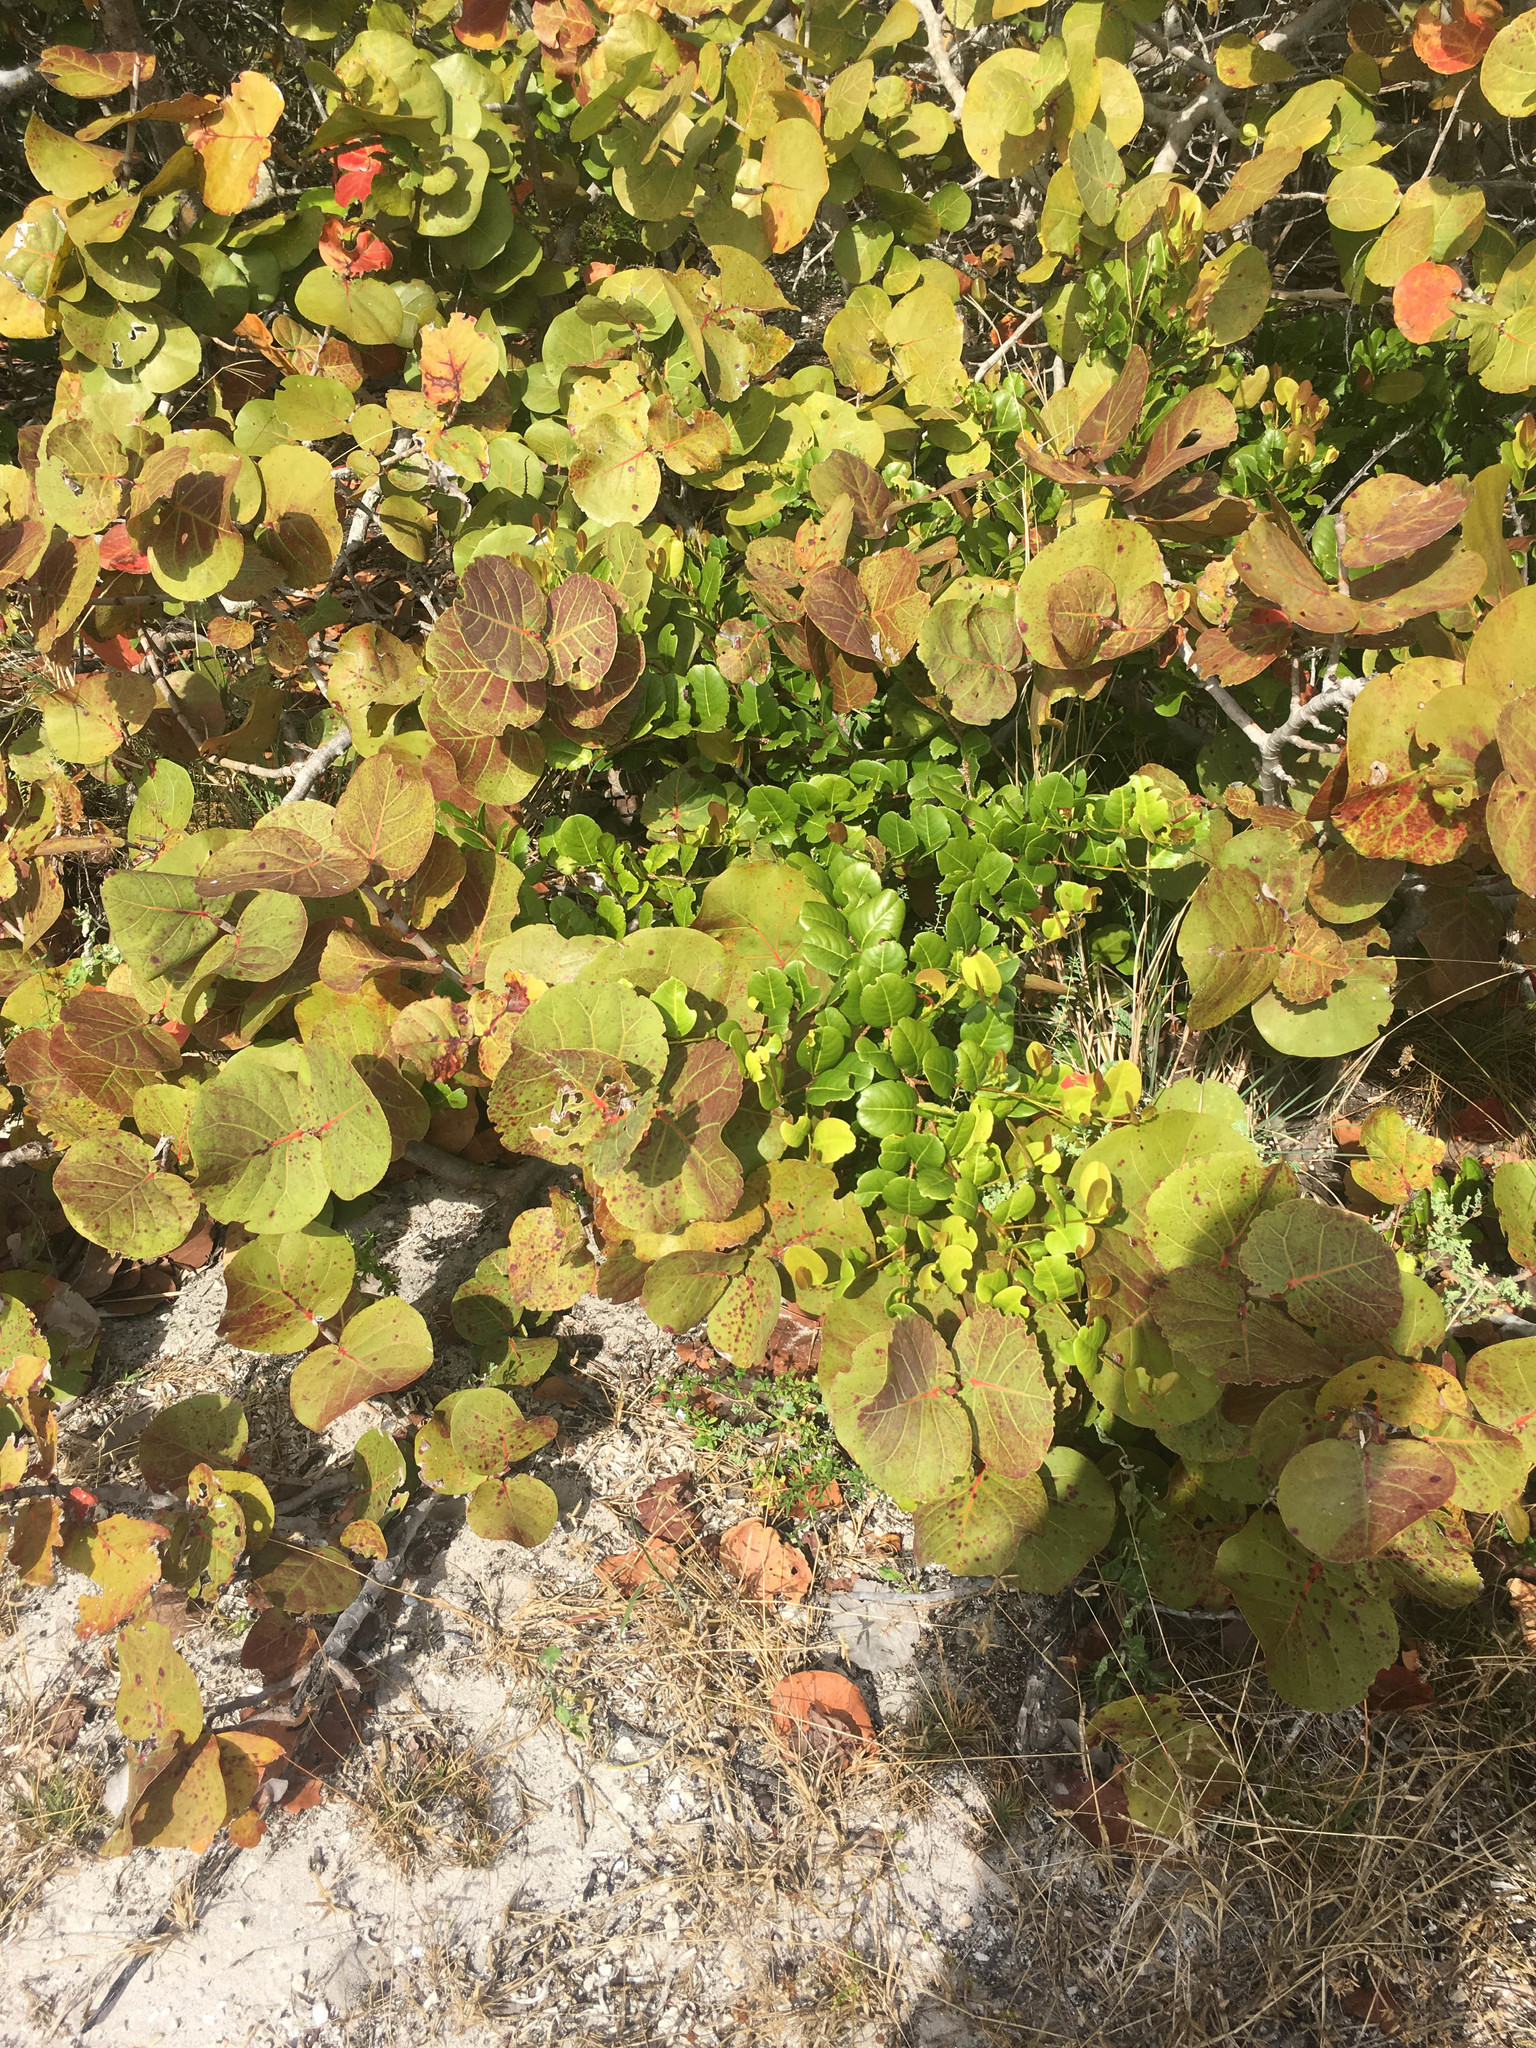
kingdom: Plantae
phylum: Tracheophyta
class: Magnoliopsida
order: Malpighiales
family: Chrysobalanaceae
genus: Chrysobalanus
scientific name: Chrysobalanus icaco
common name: Coco plum
